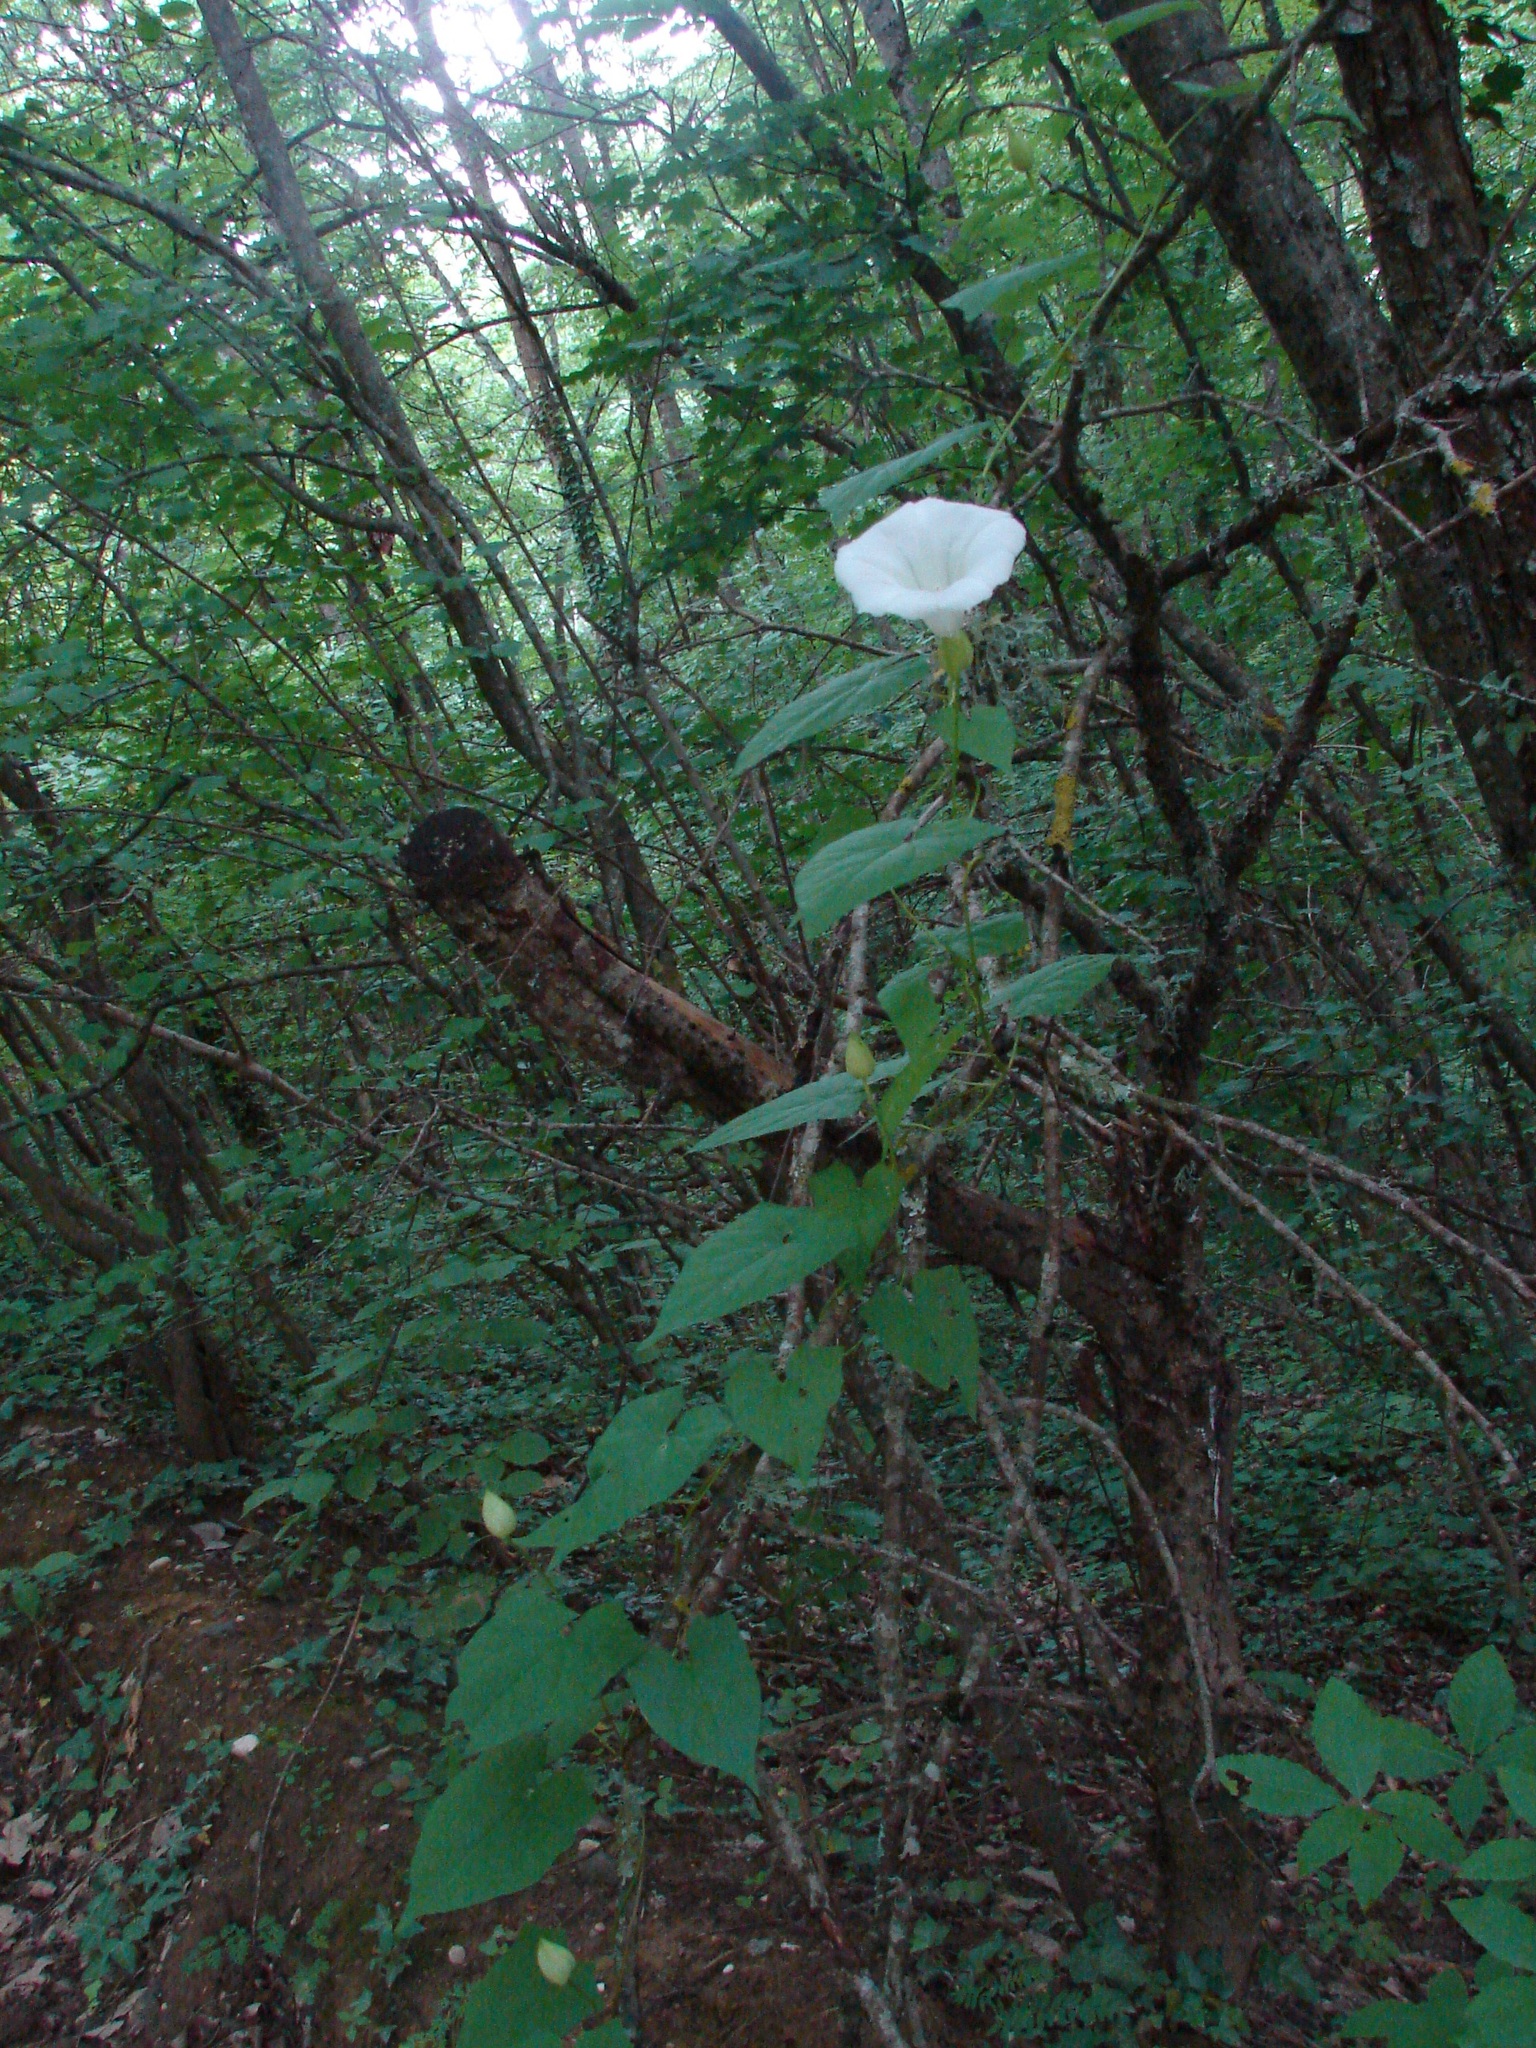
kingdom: Plantae
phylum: Tracheophyta
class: Magnoliopsida
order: Solanales
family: Convolvulaceae
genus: Calystegia
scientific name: Calystegia silvatica
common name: Large bindweed
